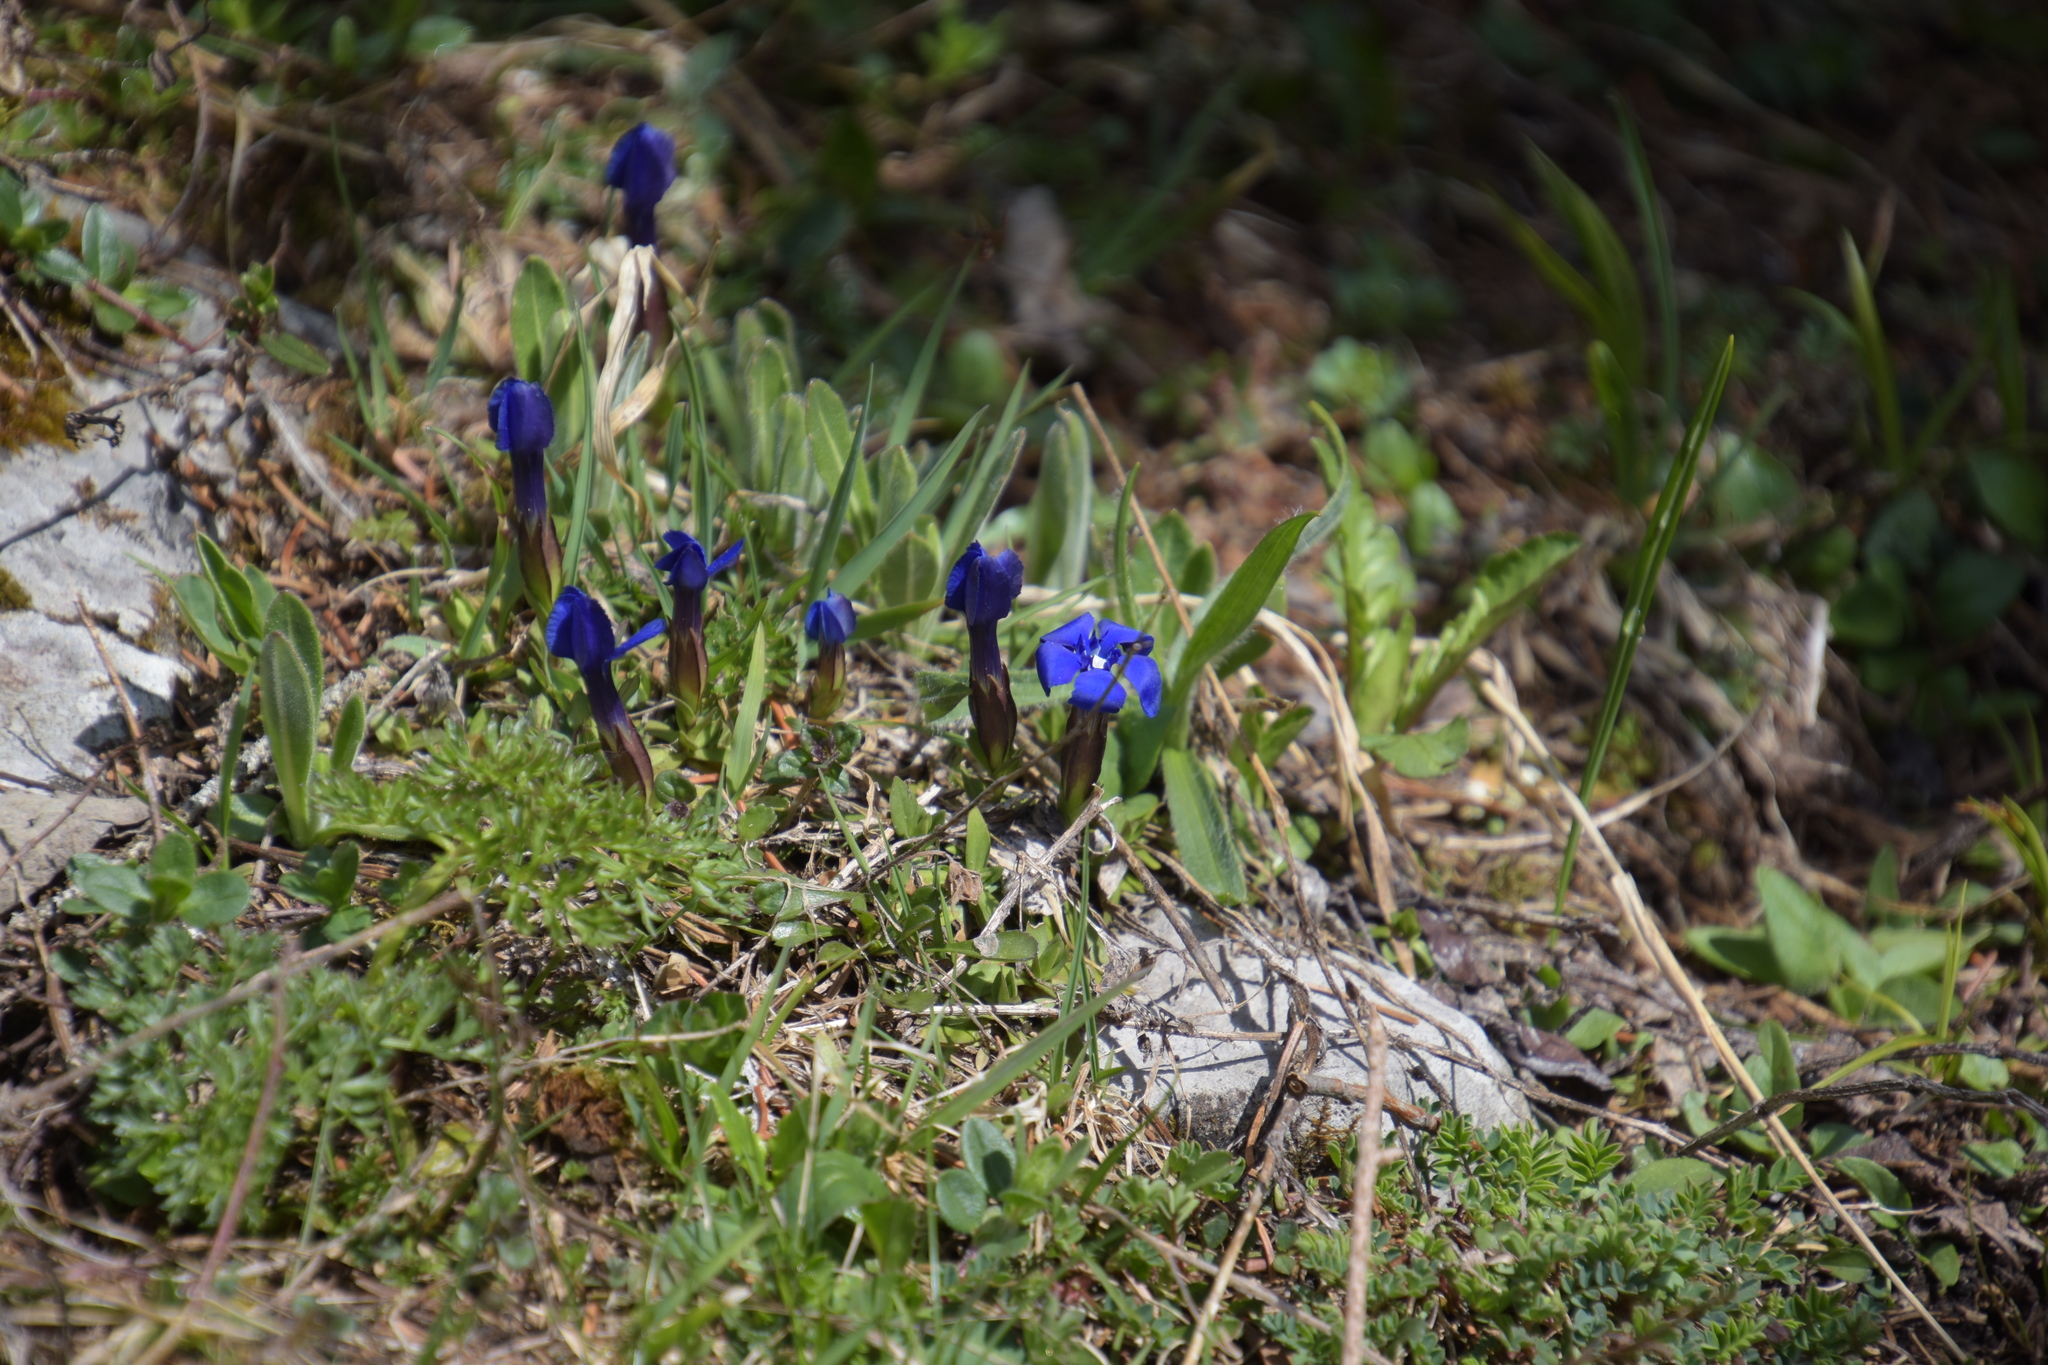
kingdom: Plantae
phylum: Tracheophyta
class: Magnoliopsida
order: Gentianales
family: Gentianaceae
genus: Gentiana
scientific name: Gentiana verna
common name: Spring gentian
